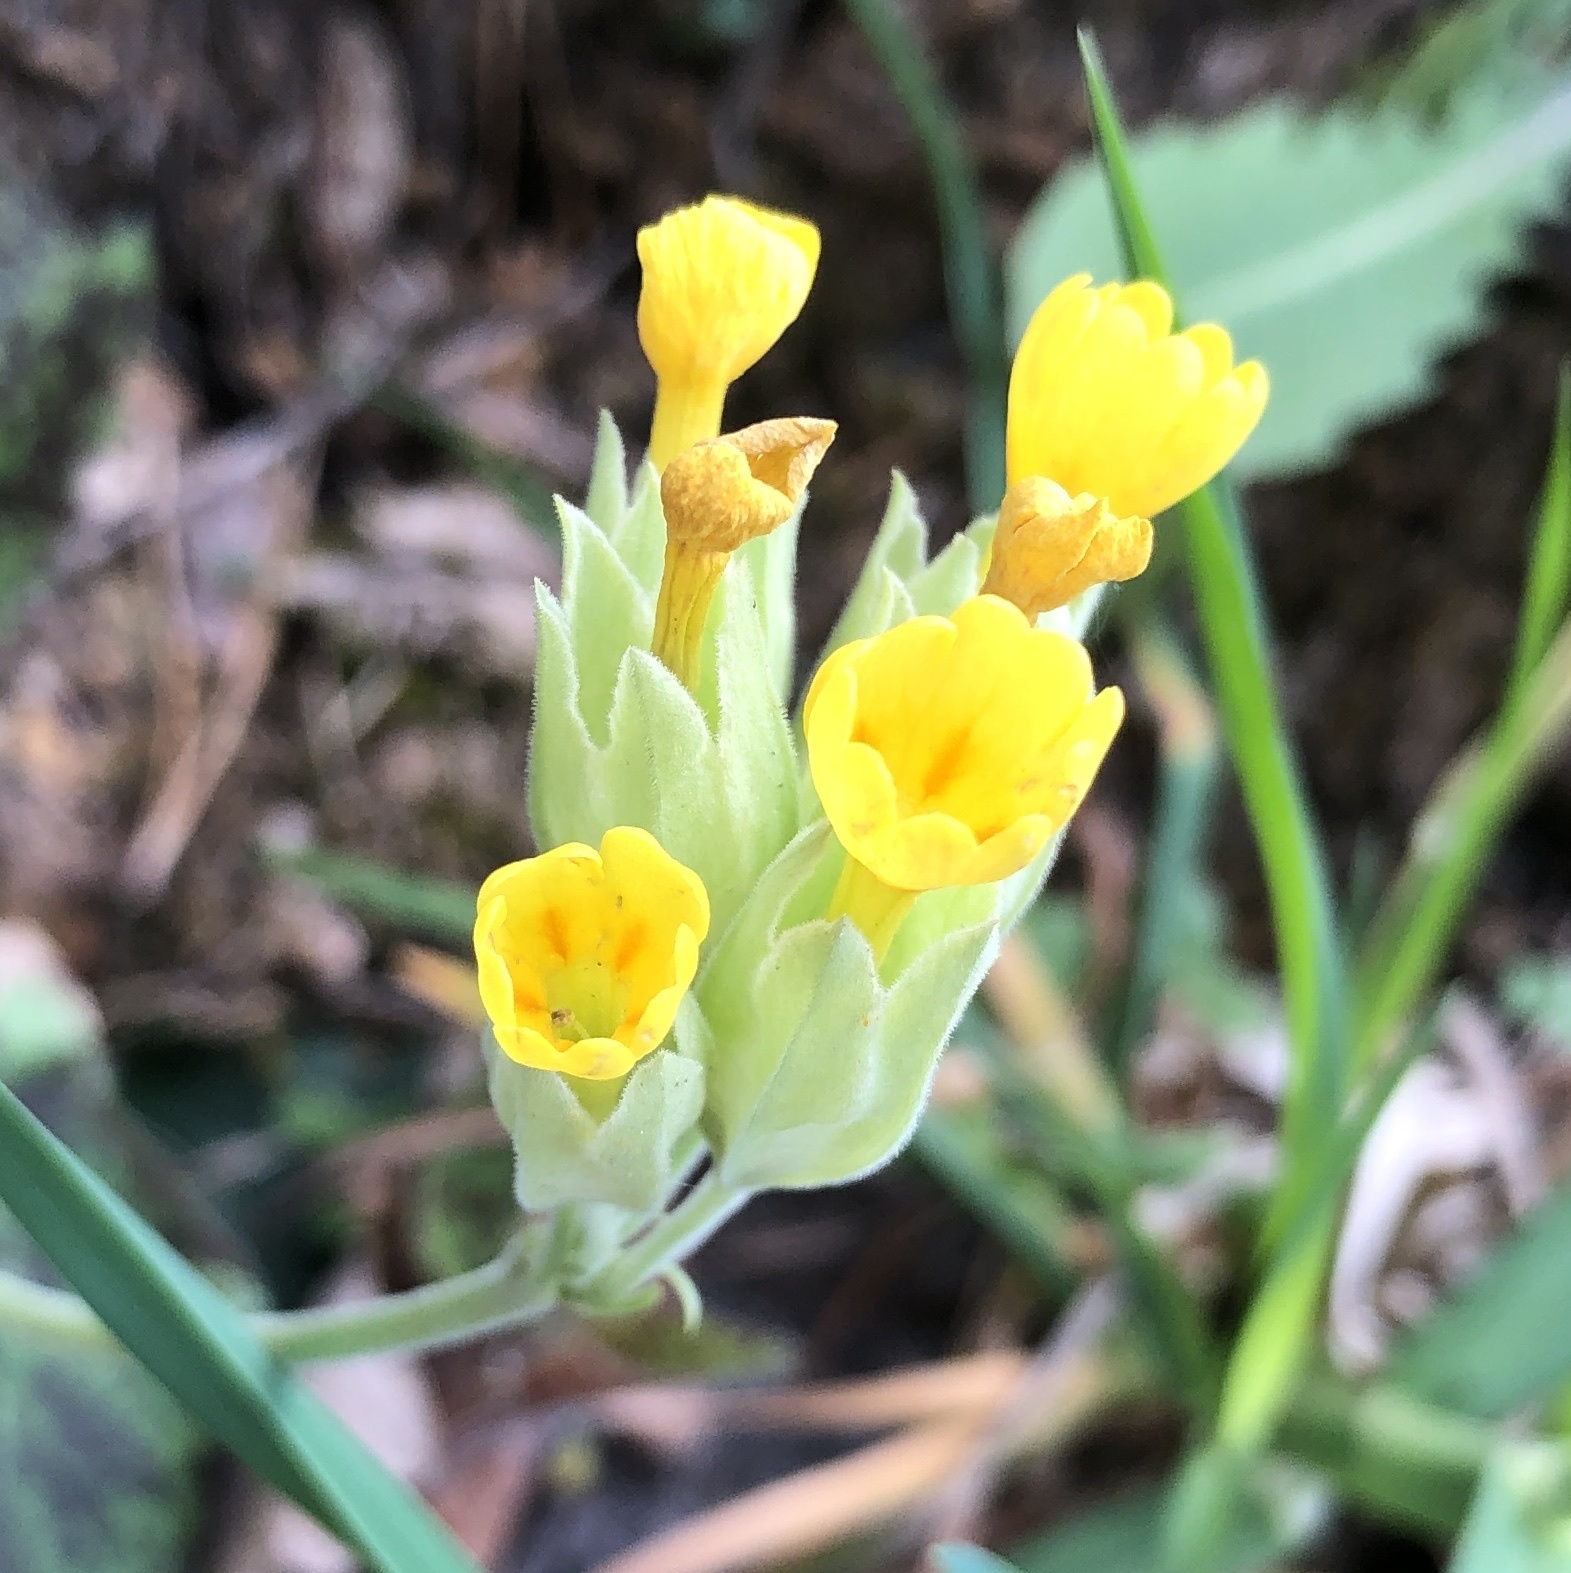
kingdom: Plantae
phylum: Tracheophyta
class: Magnoliopsida
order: Ericales
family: Primulaceae
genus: Primula
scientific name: Primula veris
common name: Cowslip
